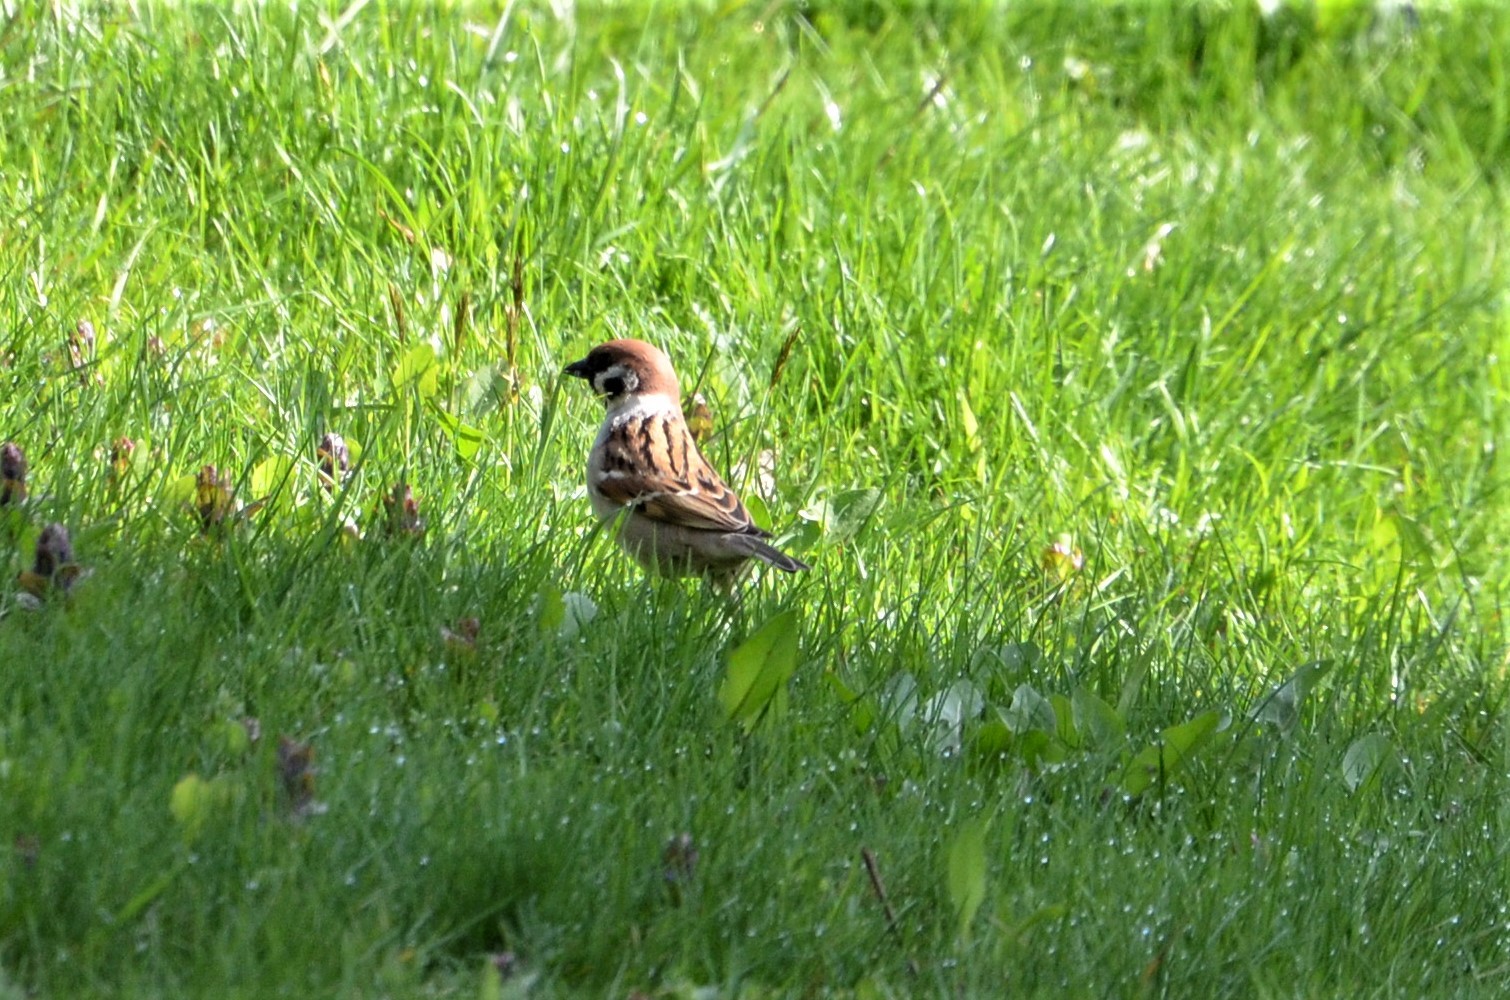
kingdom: Animalia
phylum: Chordata
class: Aves
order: Passeriformes
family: Passeridae
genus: Passer
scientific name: Passer montanus
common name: Eurasian tree sparrow
